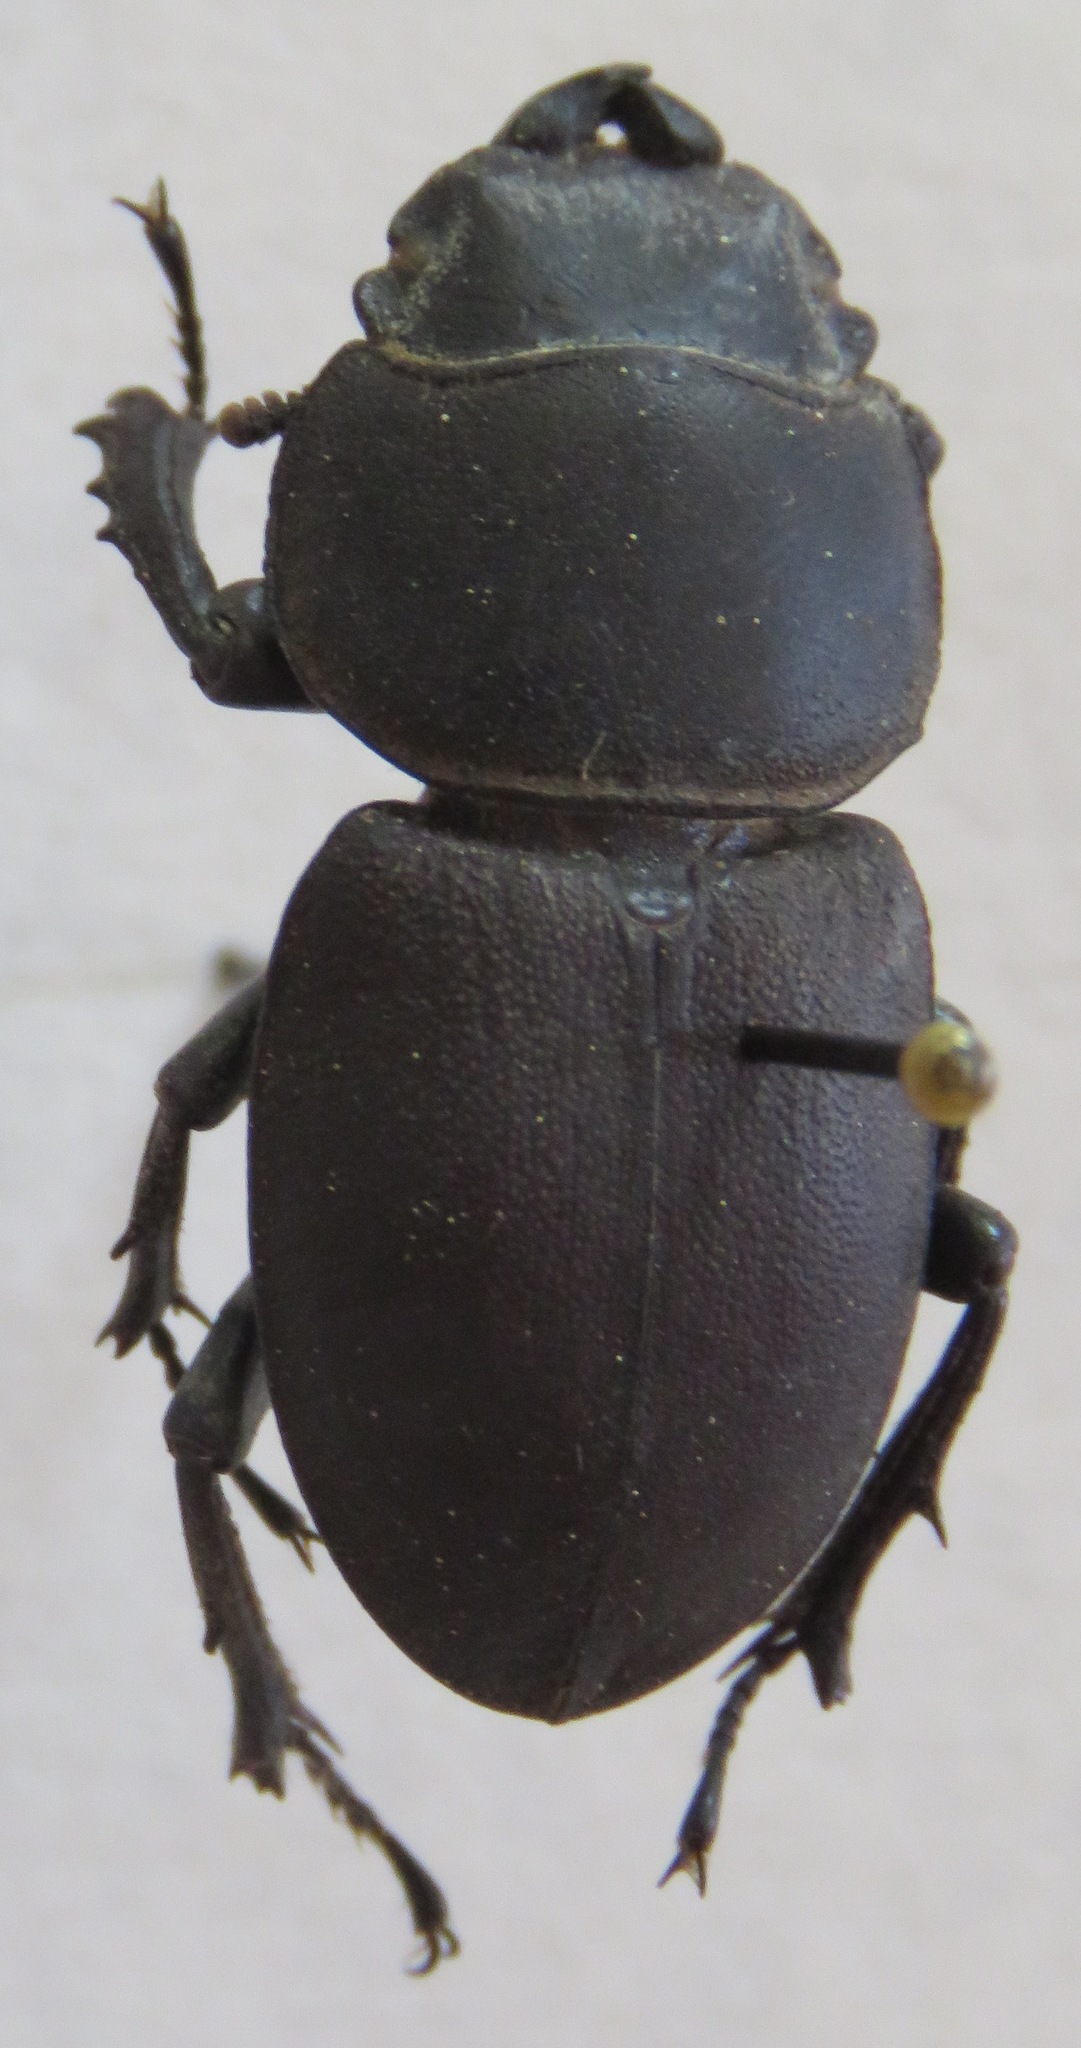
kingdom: Animalia
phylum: Arthropoda
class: Insecta
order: Coleoptera
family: Lucanidae
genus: Apterodorcus
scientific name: Apterodorcus bacchus
